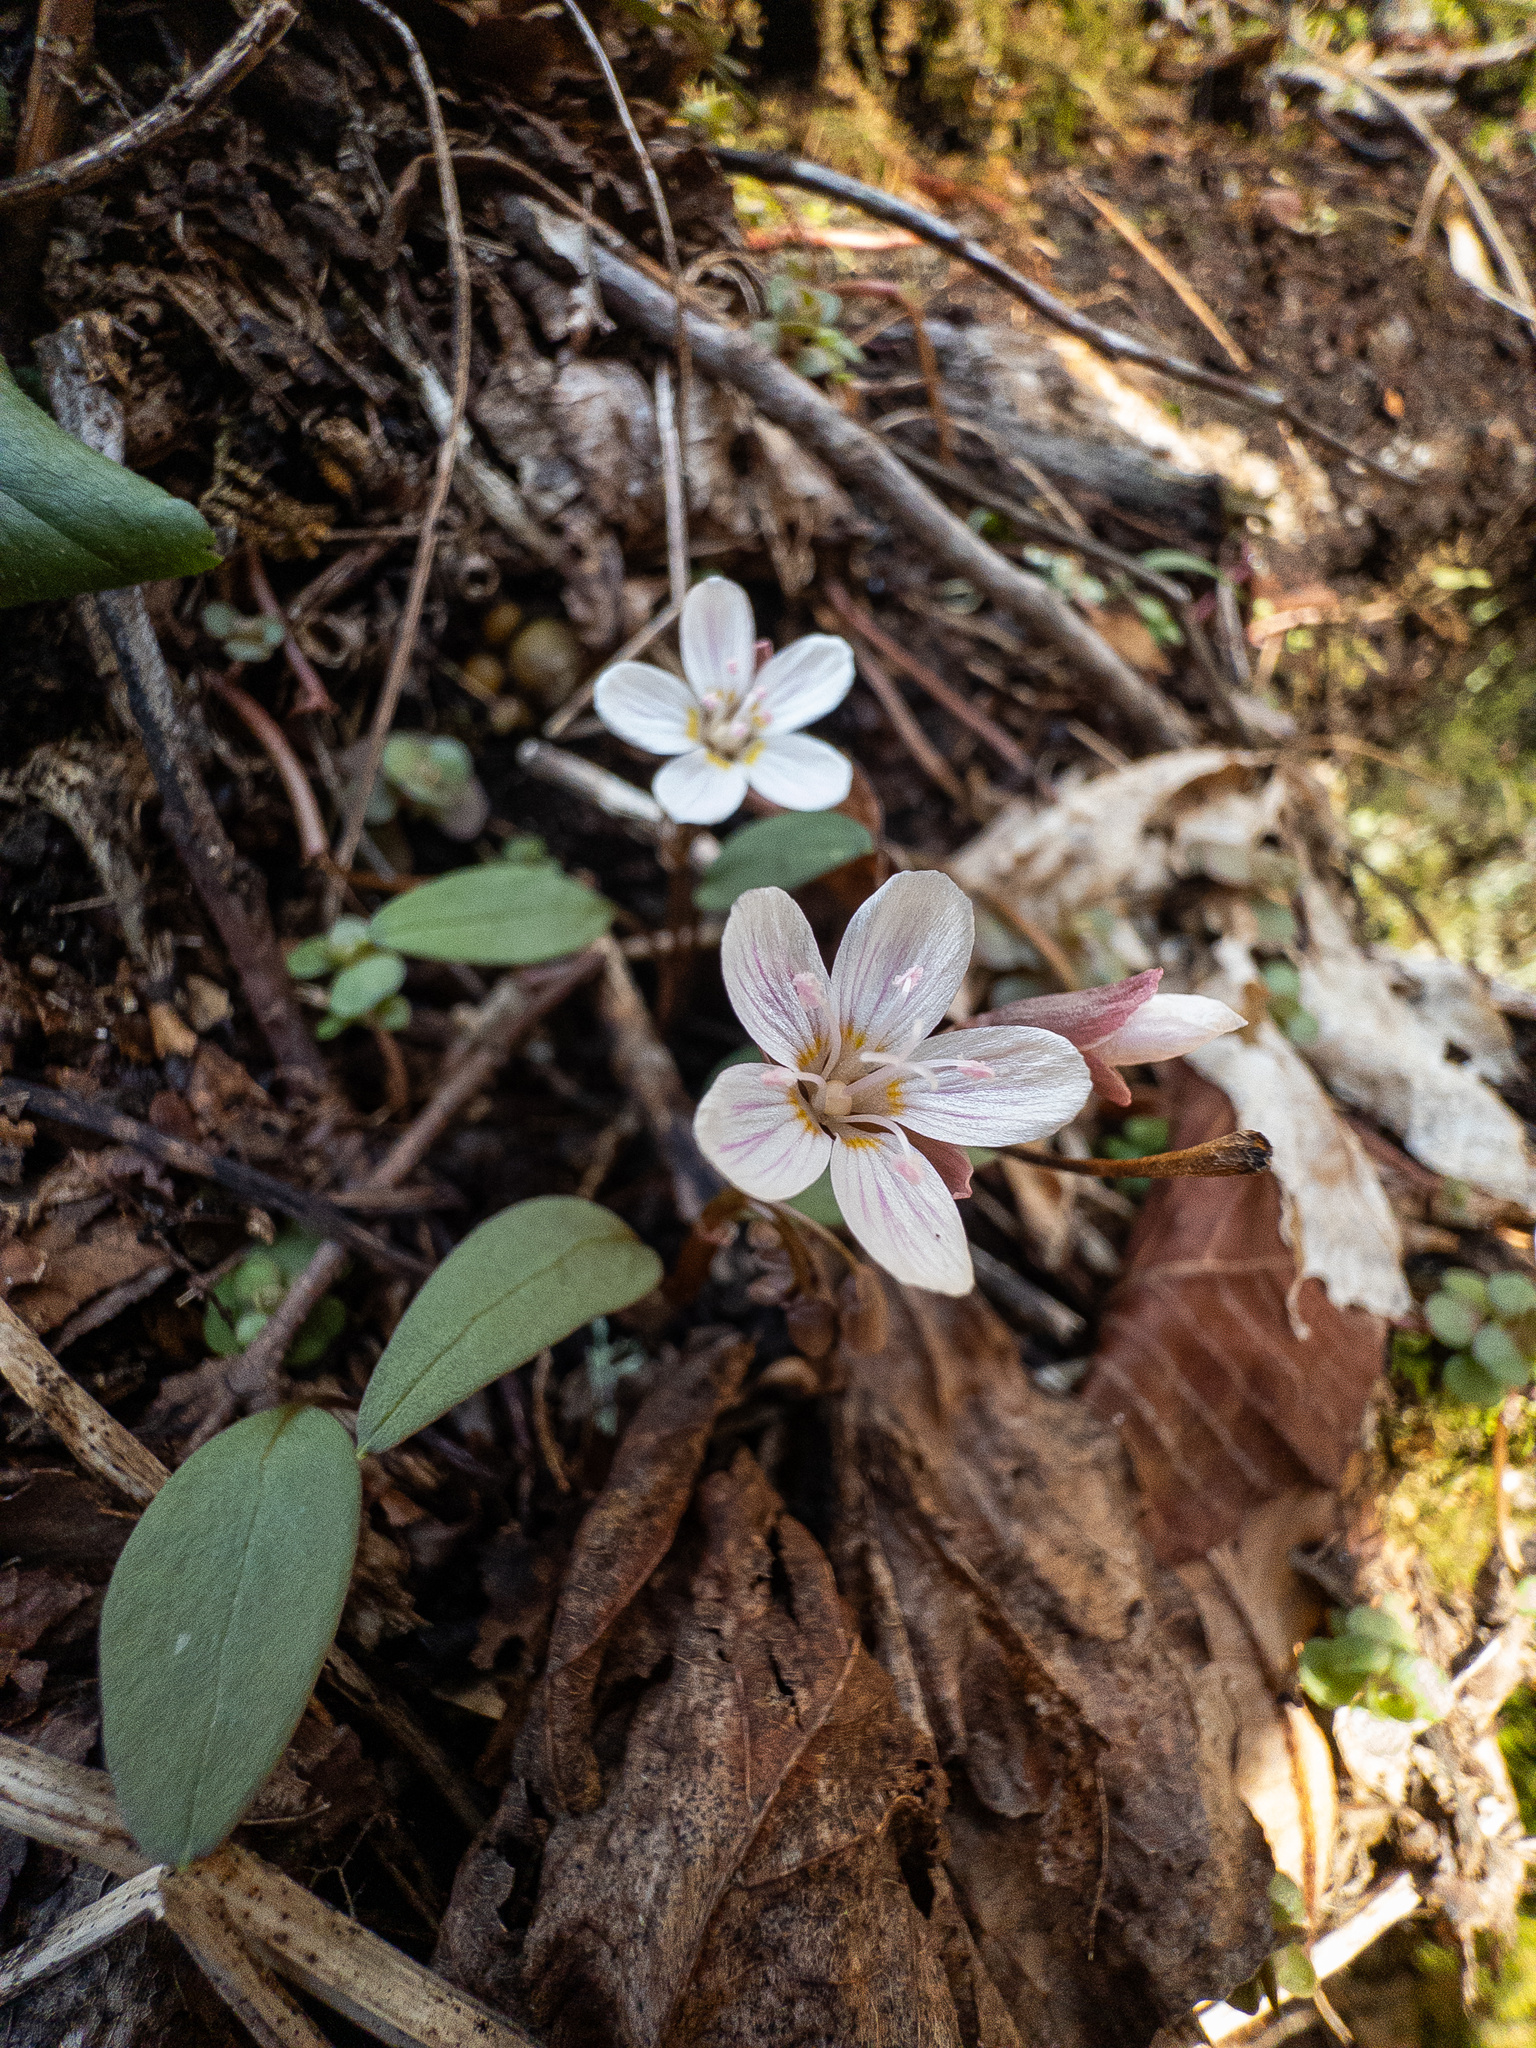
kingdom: Plantae
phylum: Tracheophyta
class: Magnoliopsida
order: Caryophyllales
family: Montiaceae
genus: Claytonia
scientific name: Claytonia caroliniana
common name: Carolina spring beauty
